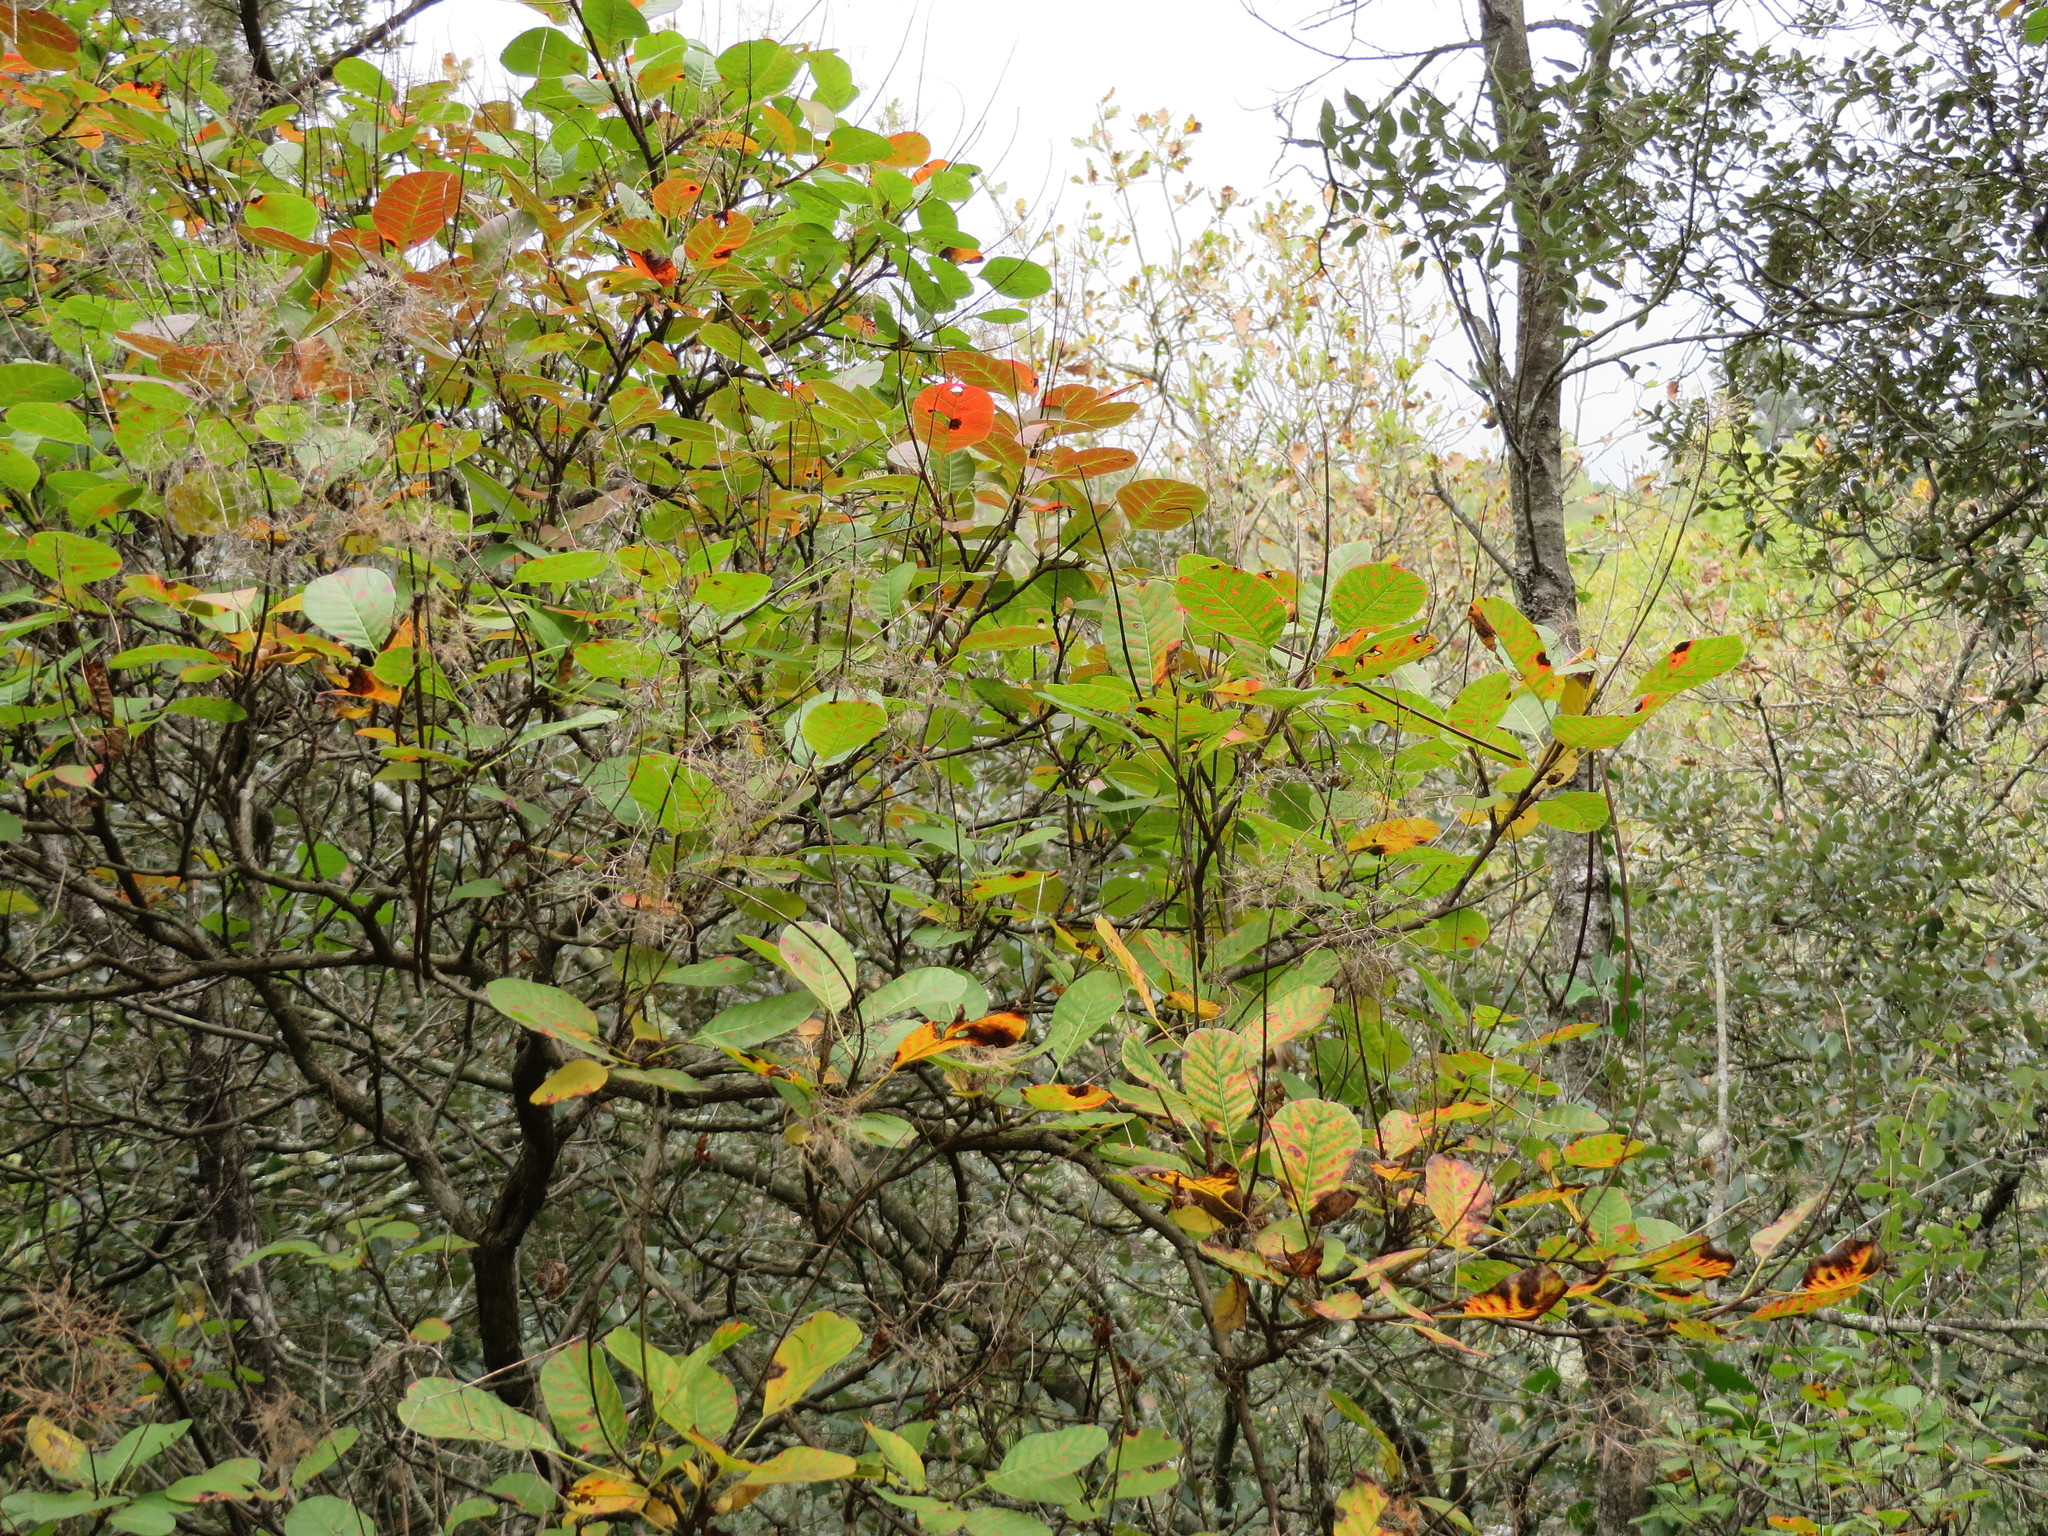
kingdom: Plantae
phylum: Tracheophyta
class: Magnoliopsida
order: Sapindales
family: Anacardiaceae
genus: Cotinus
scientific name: Cotinus coggygria
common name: Smoke-tree
